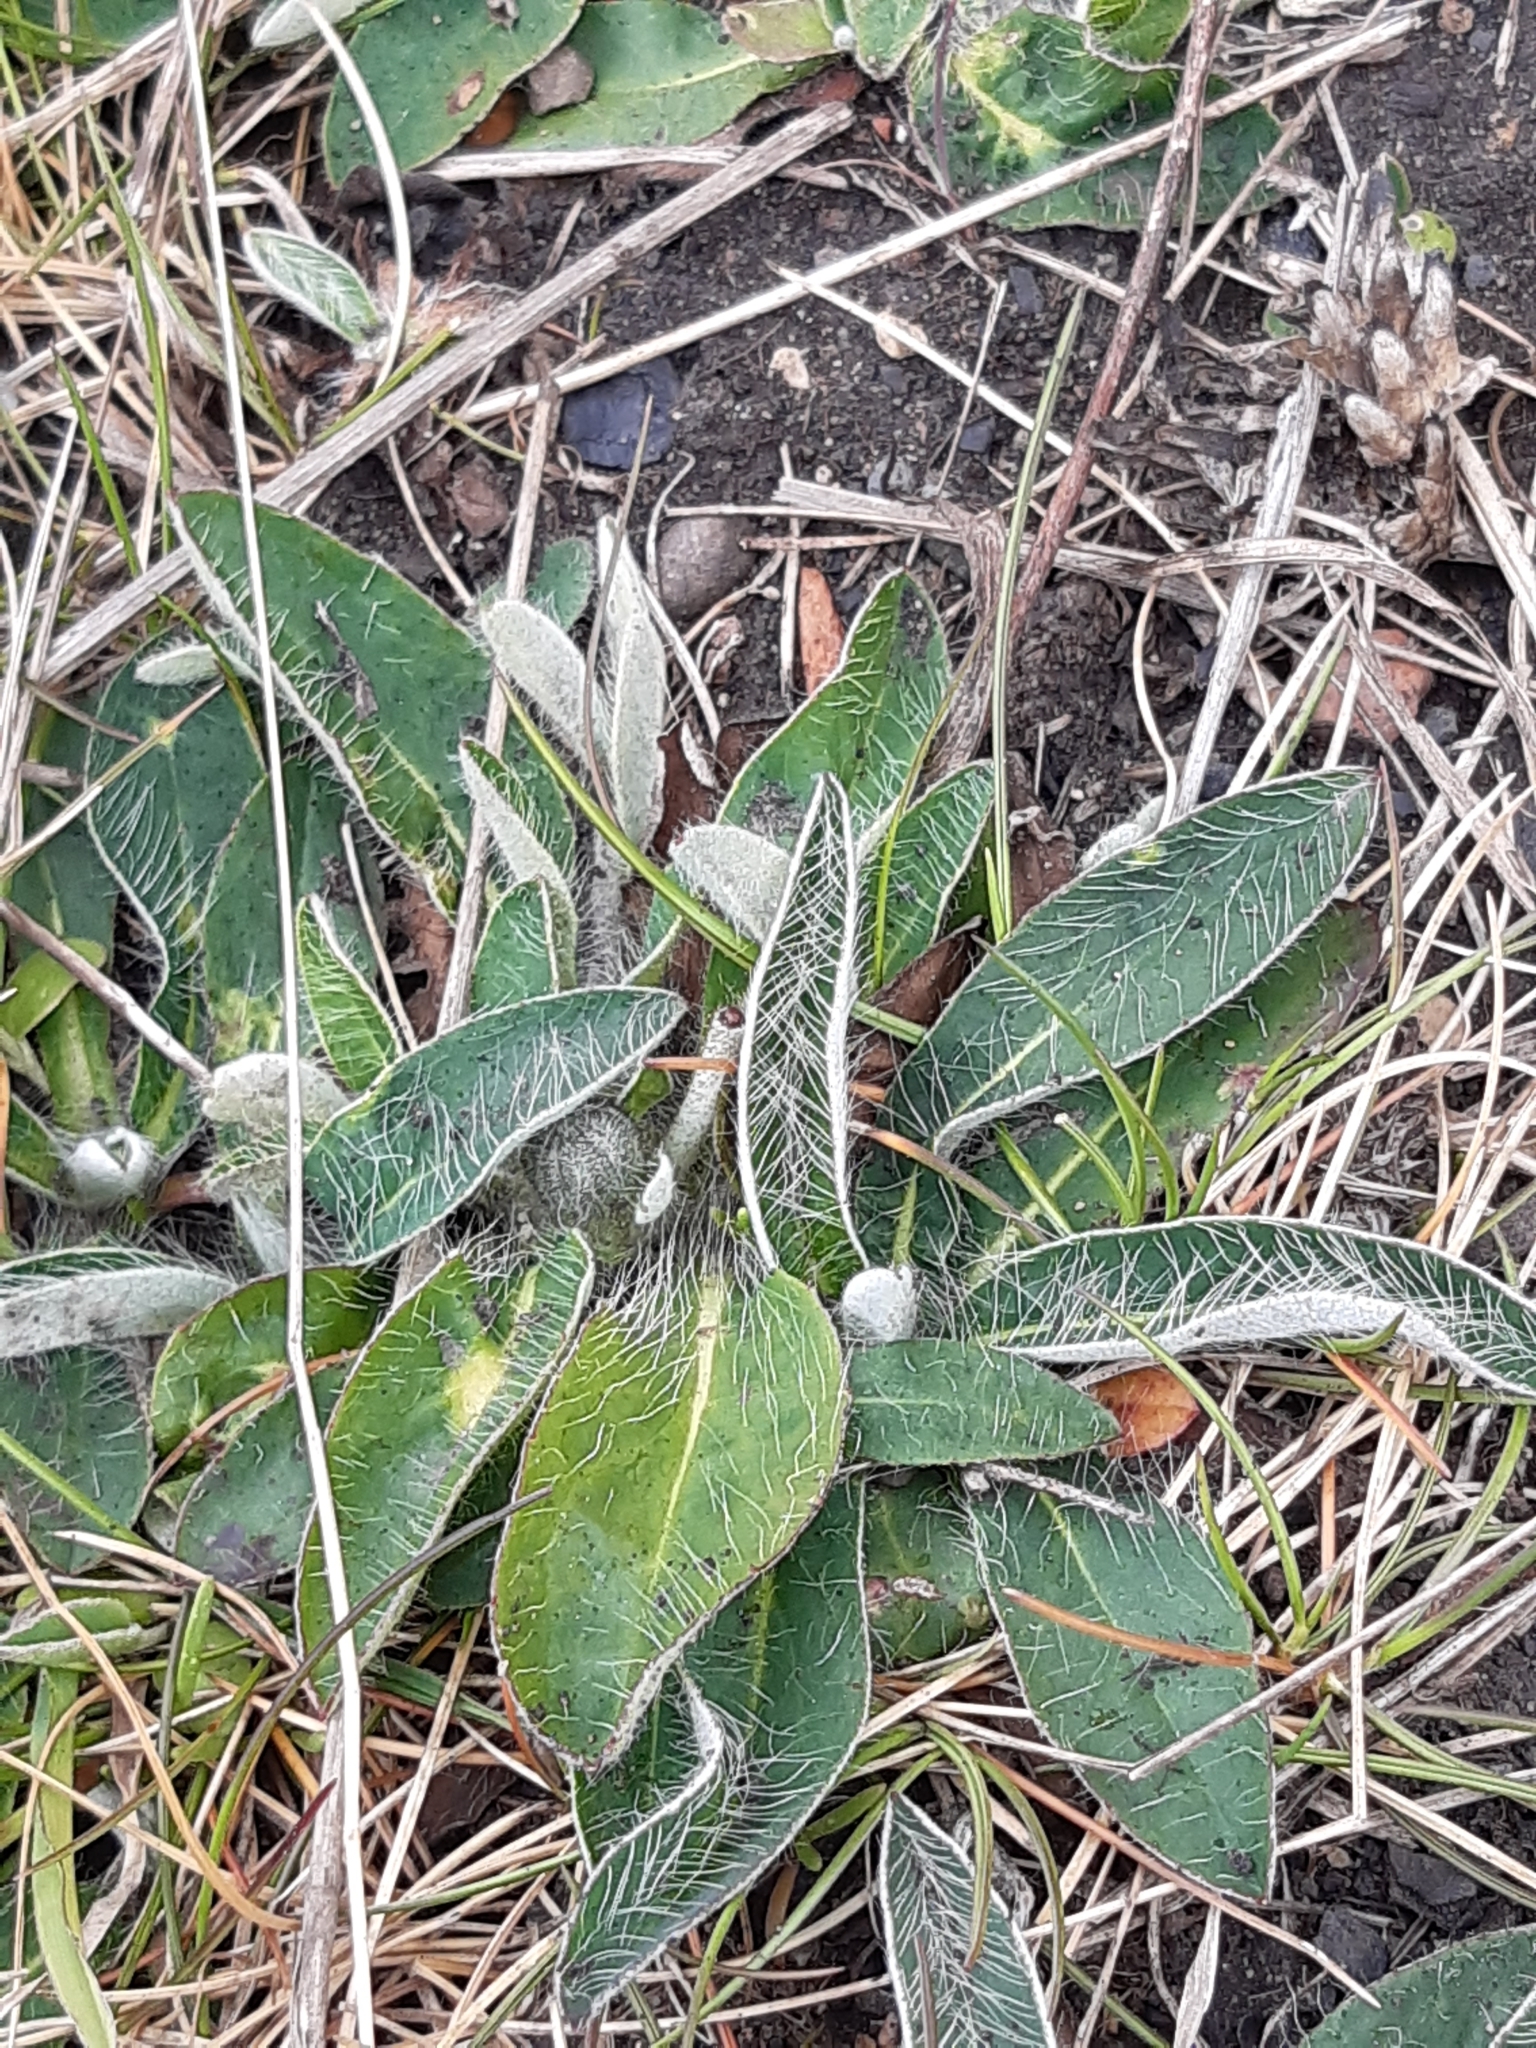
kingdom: Plantae
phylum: Tracheophyta
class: Magnoliopsida
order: Asterales
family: Asteraceae
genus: Pilosella
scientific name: Pilosella officinarum
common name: Mouse-ear hawkweed
